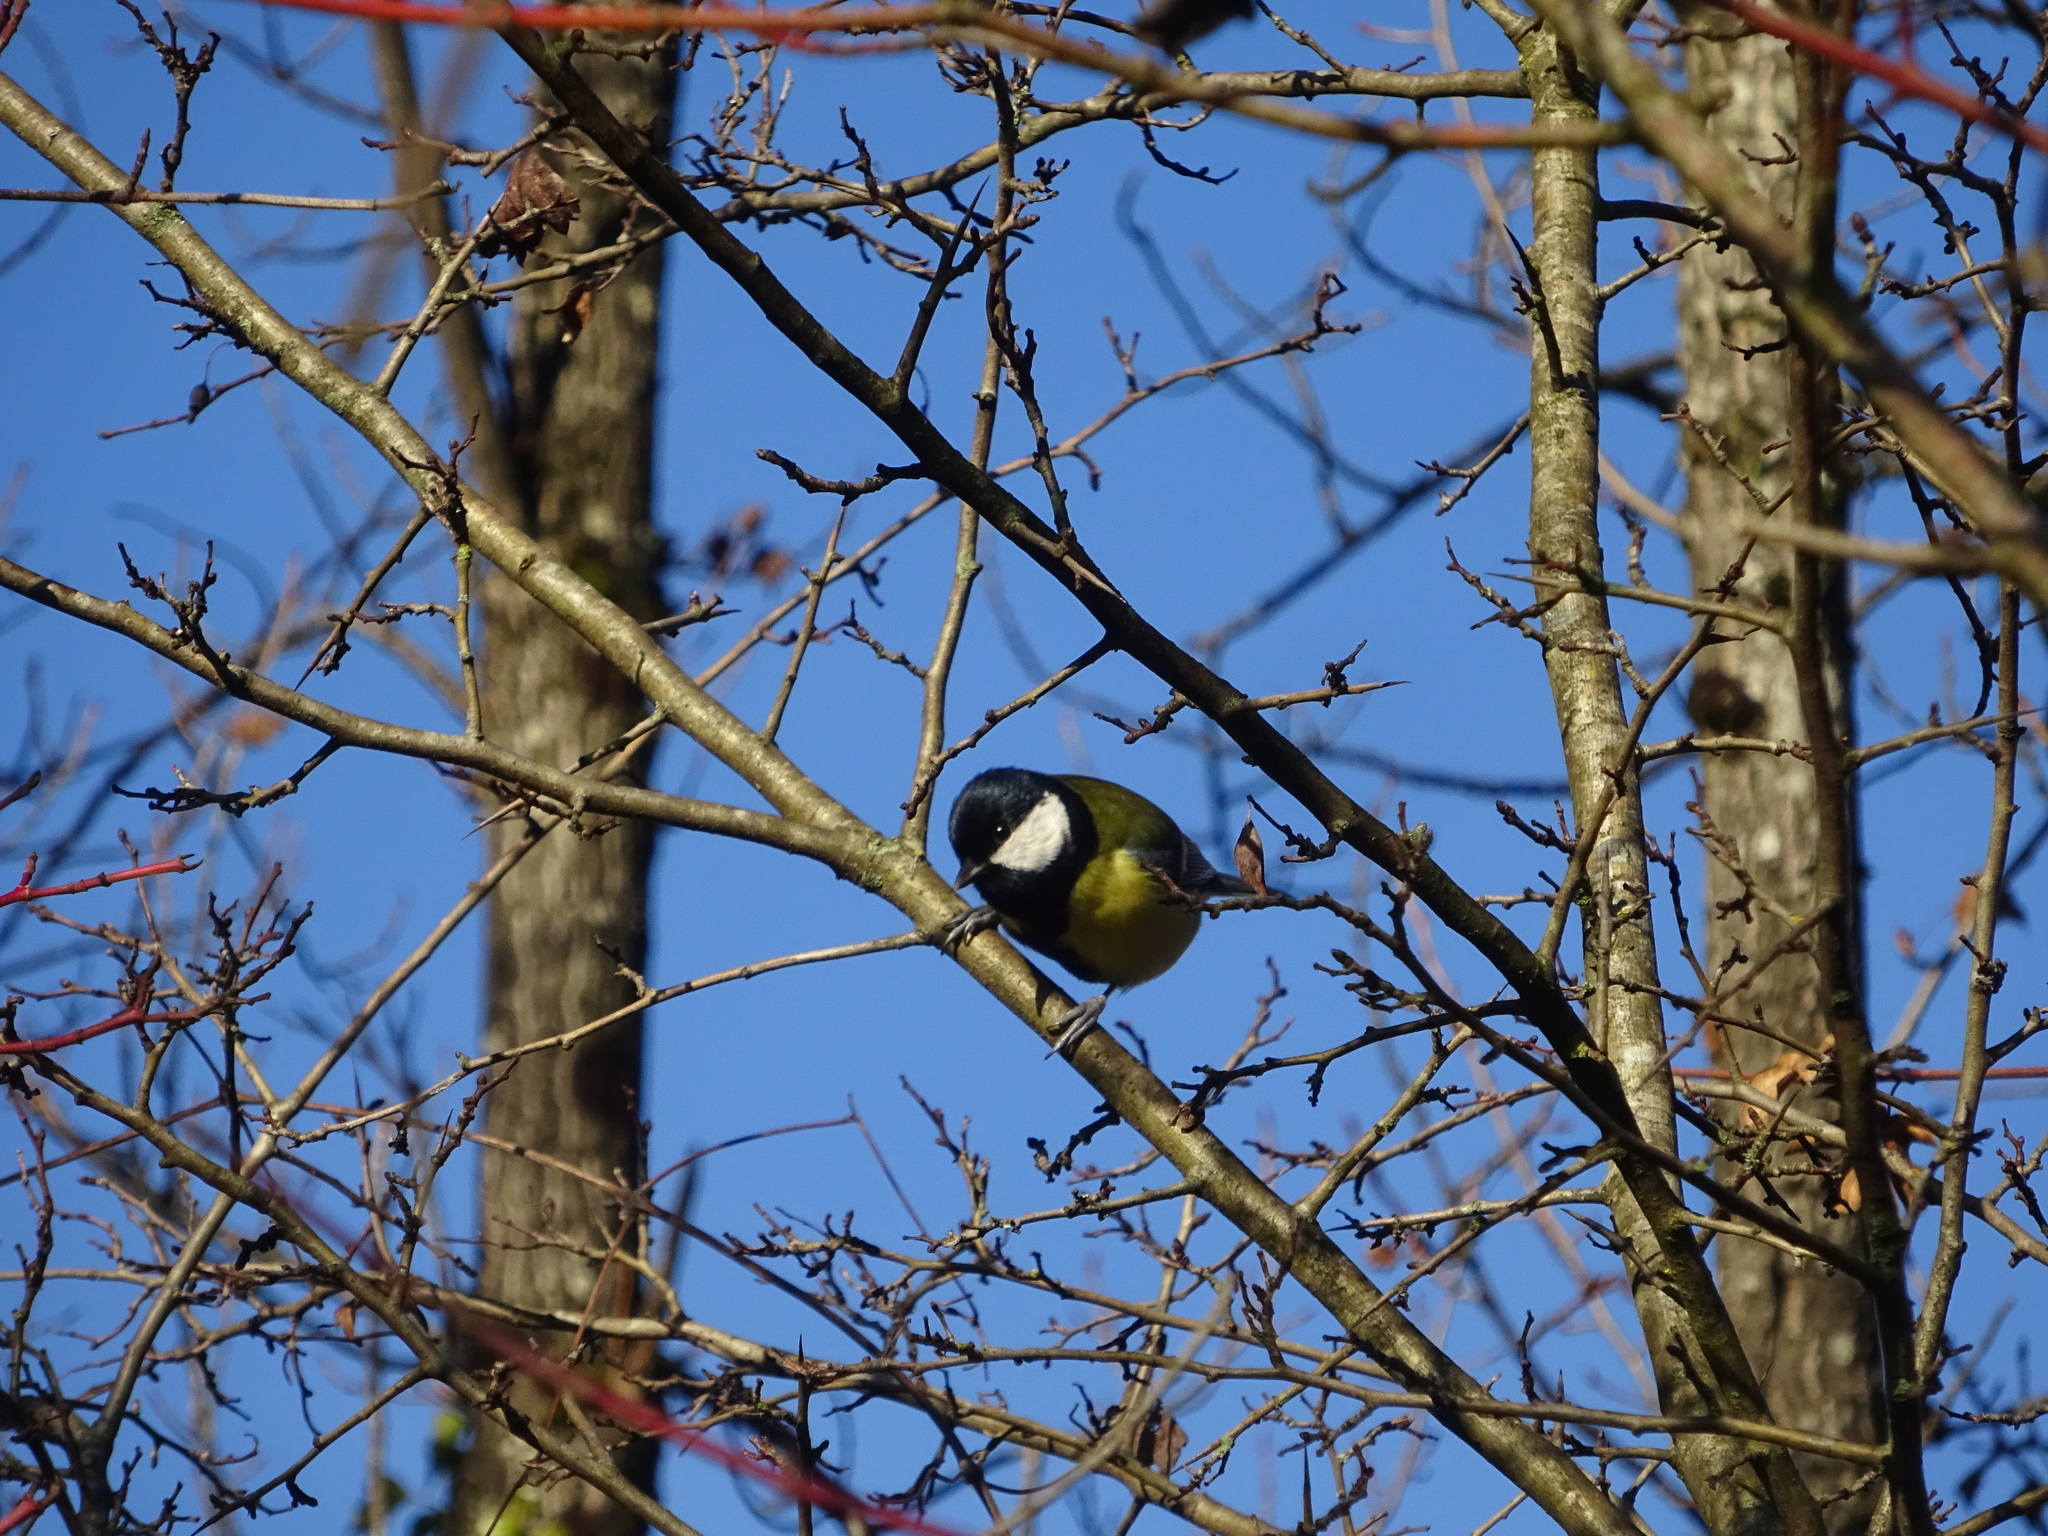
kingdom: Animalia
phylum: Chordata
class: Aves
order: Passeriformes
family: Paridae
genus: Parus
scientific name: Parus major
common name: Great tit
